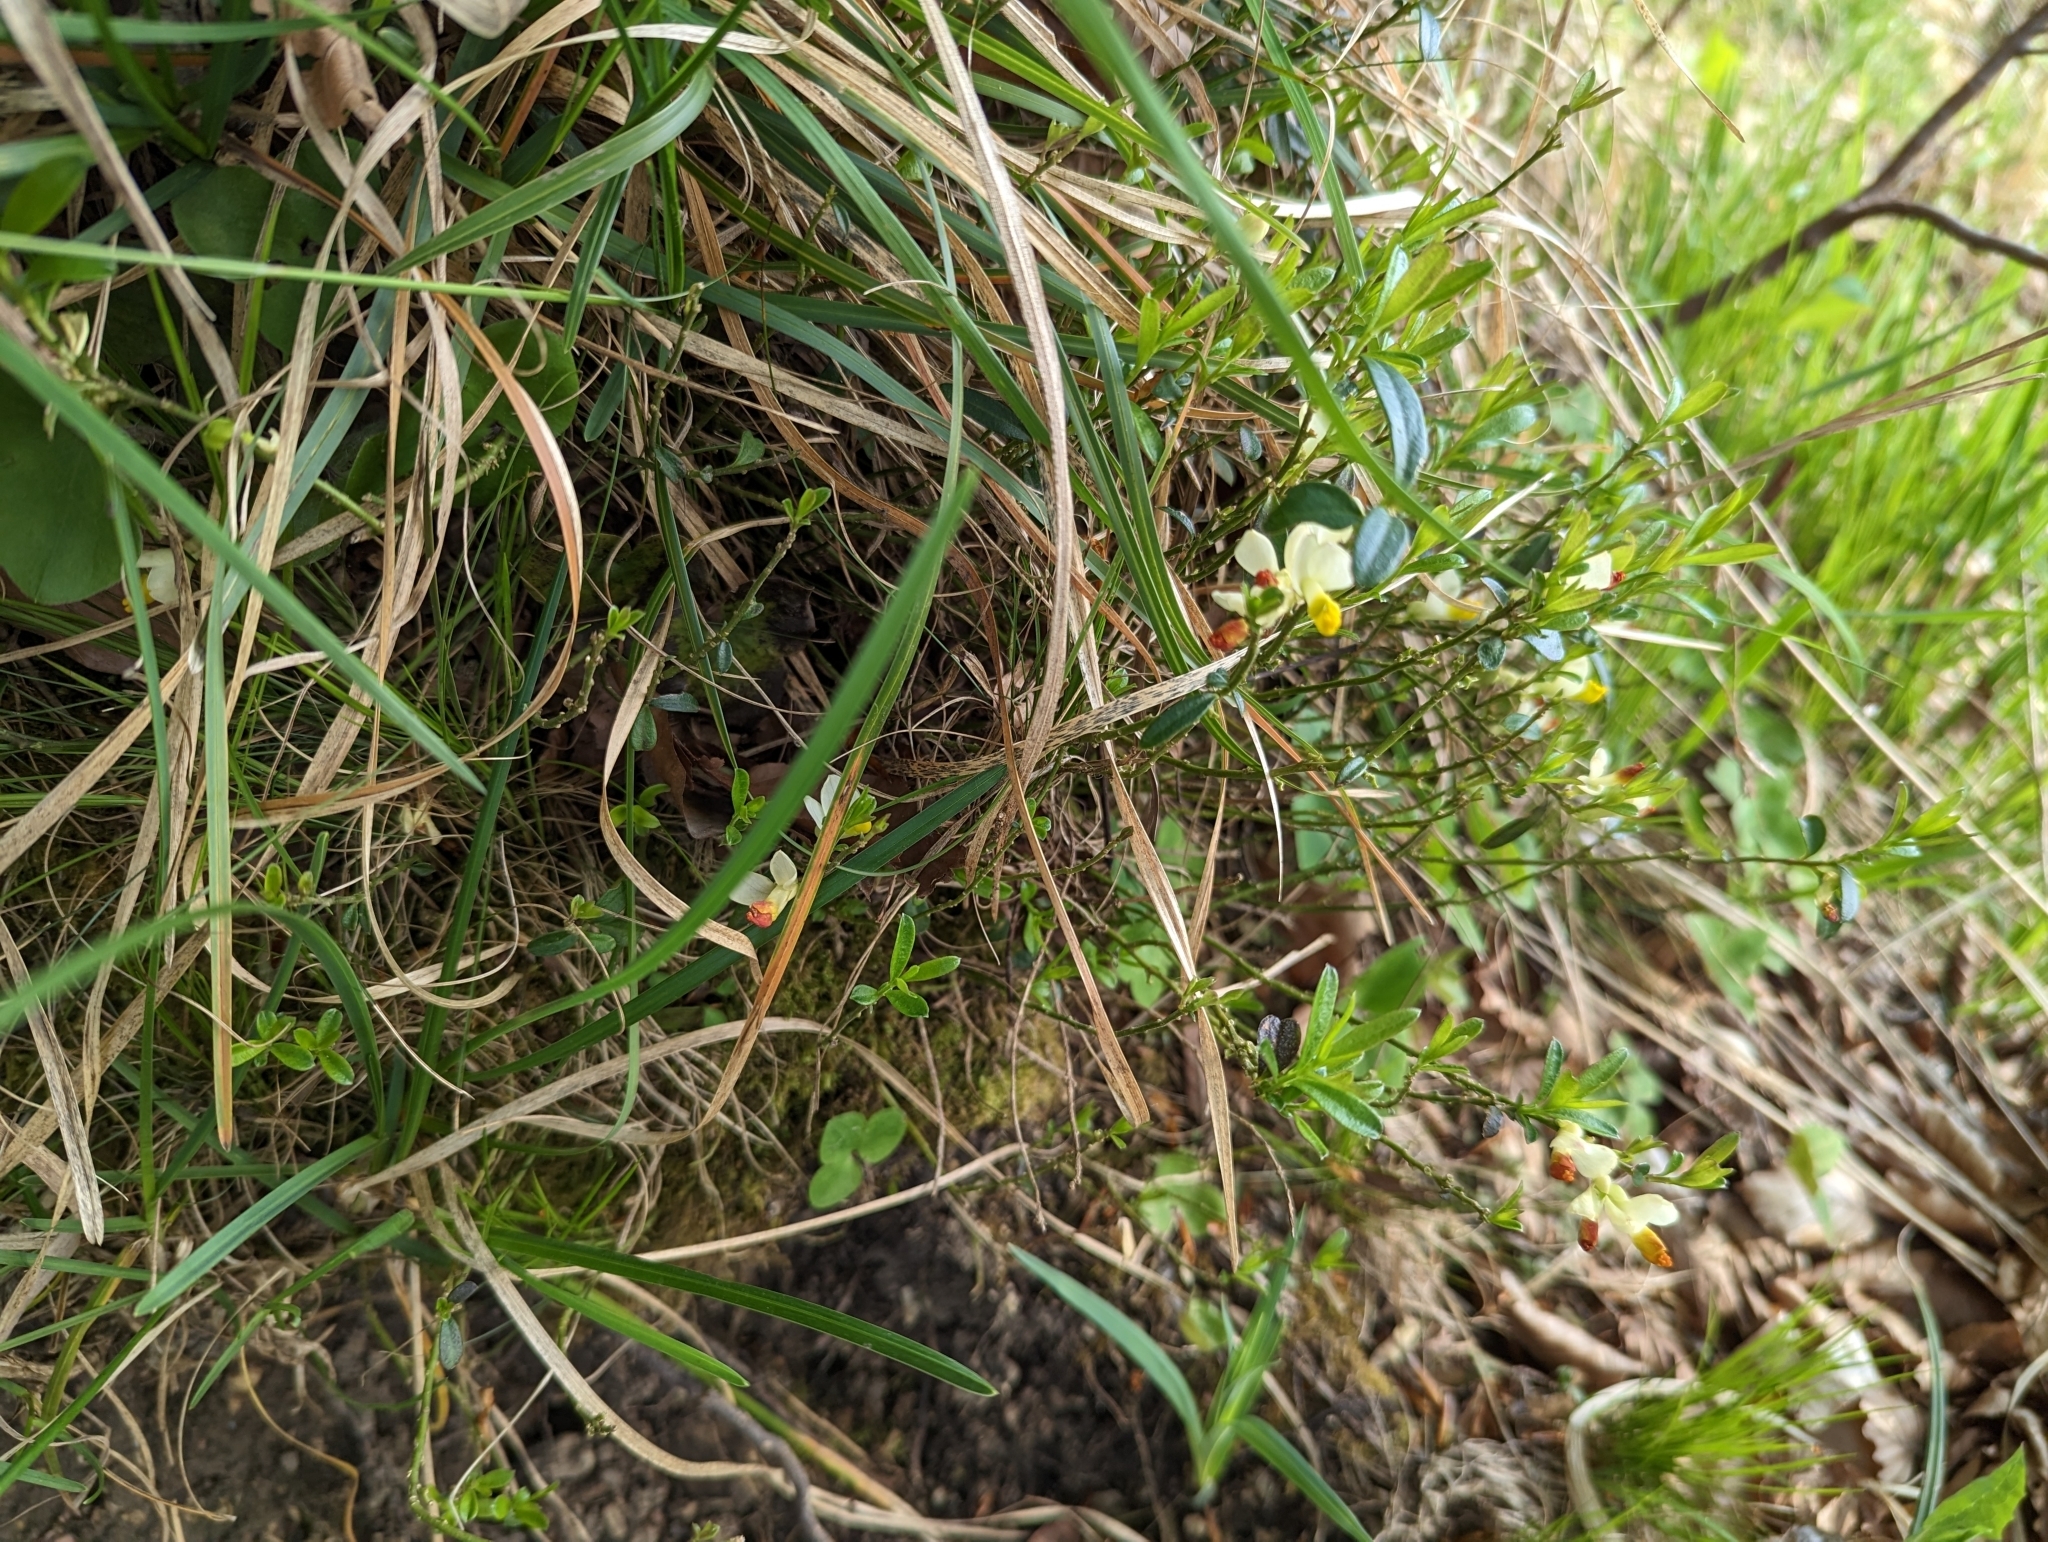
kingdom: Plantae
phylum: Tracheophyta
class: Magnoliopsida
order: Fabales
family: Polygalaceae
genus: Polygaloides
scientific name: Polygaloides chamaebuxus
